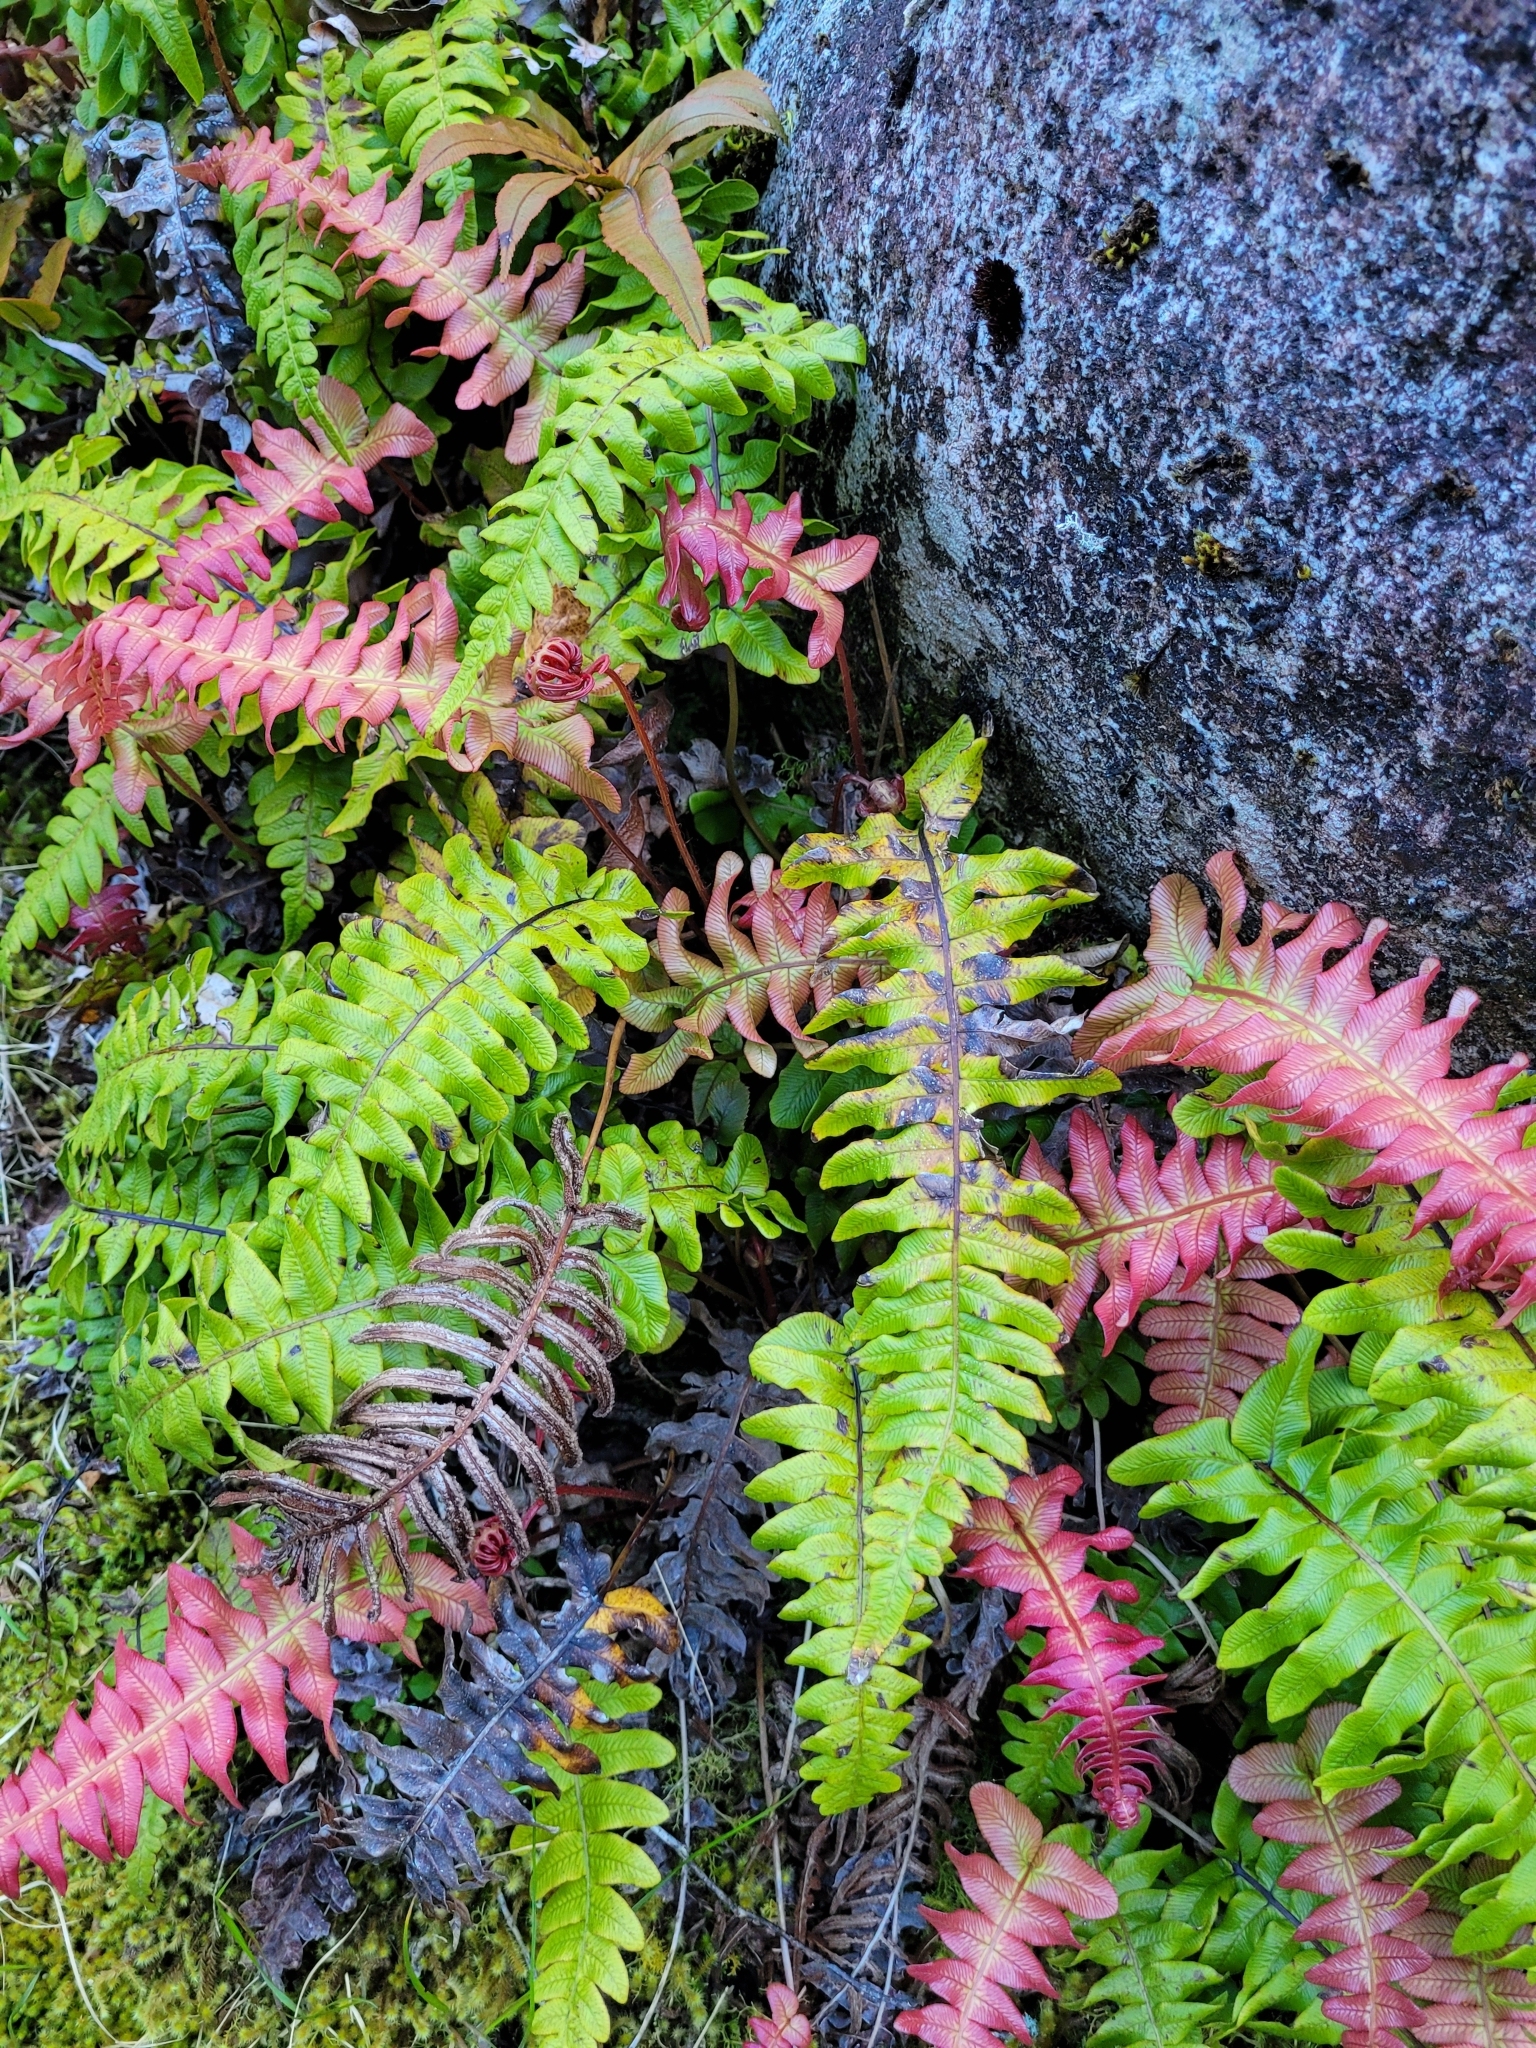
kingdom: Plantae
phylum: Tracheophyta
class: Polypodiopsida
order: Polypodiales
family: Blechnaceae
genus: Cranfillia
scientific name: Cranfillia deltoides
